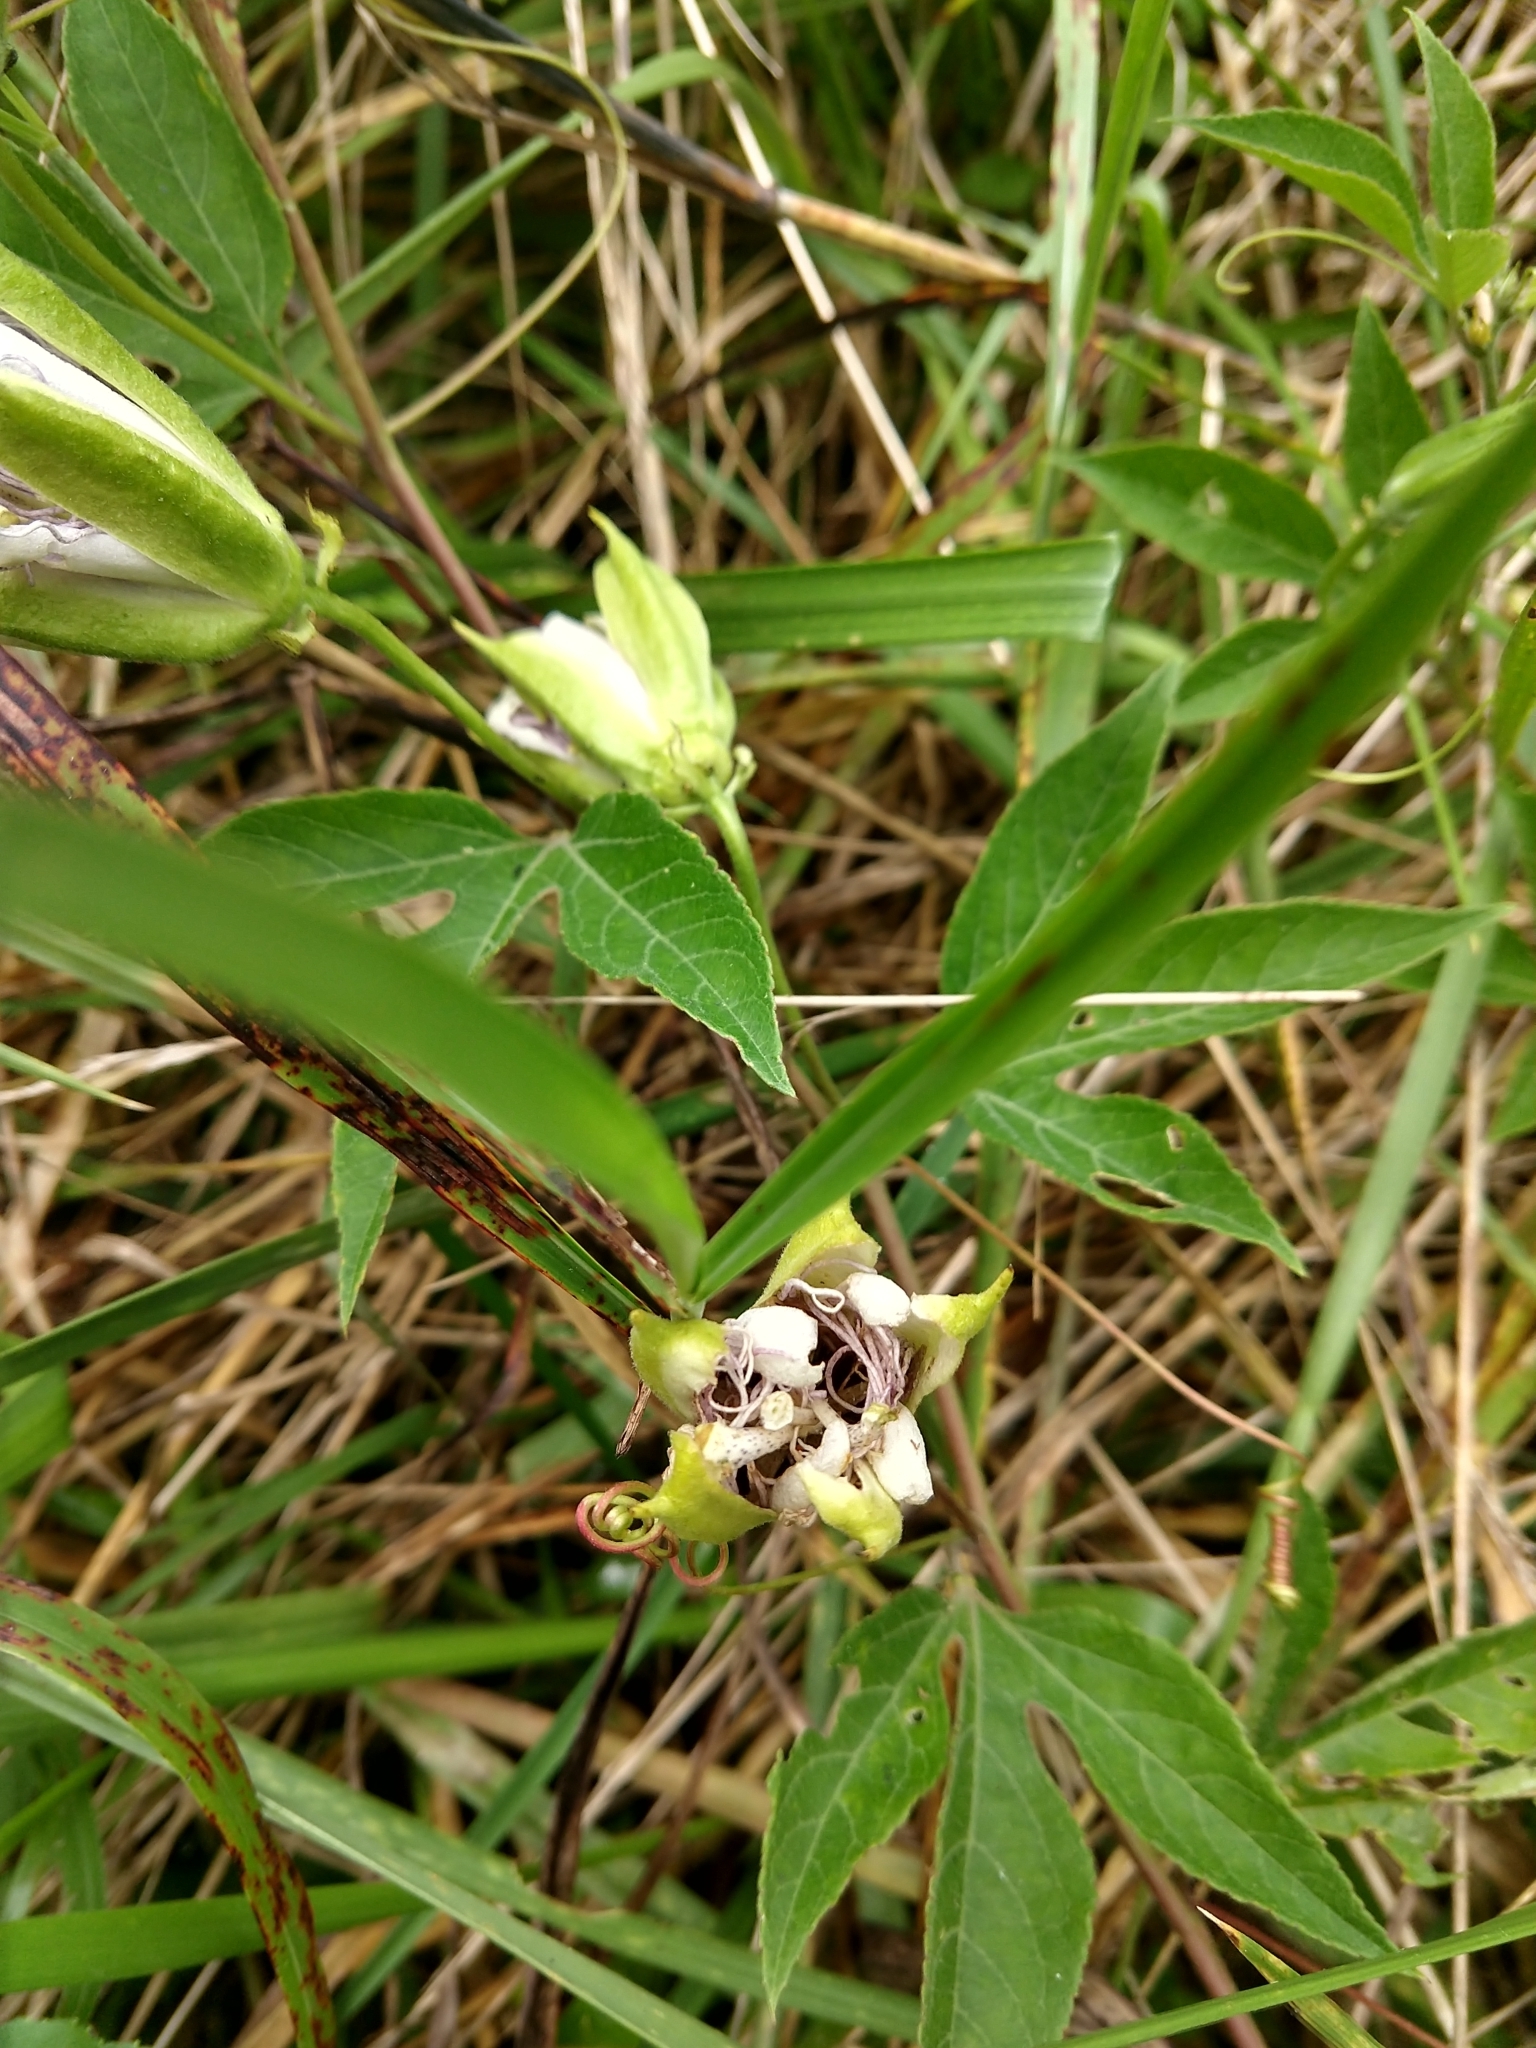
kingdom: Plantae
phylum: Tracheophyta
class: Magnoliopsida
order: Malpighiales
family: Passifloraceae
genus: Passiflora
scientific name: Passiflora incarnata
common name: Apricot-vine
